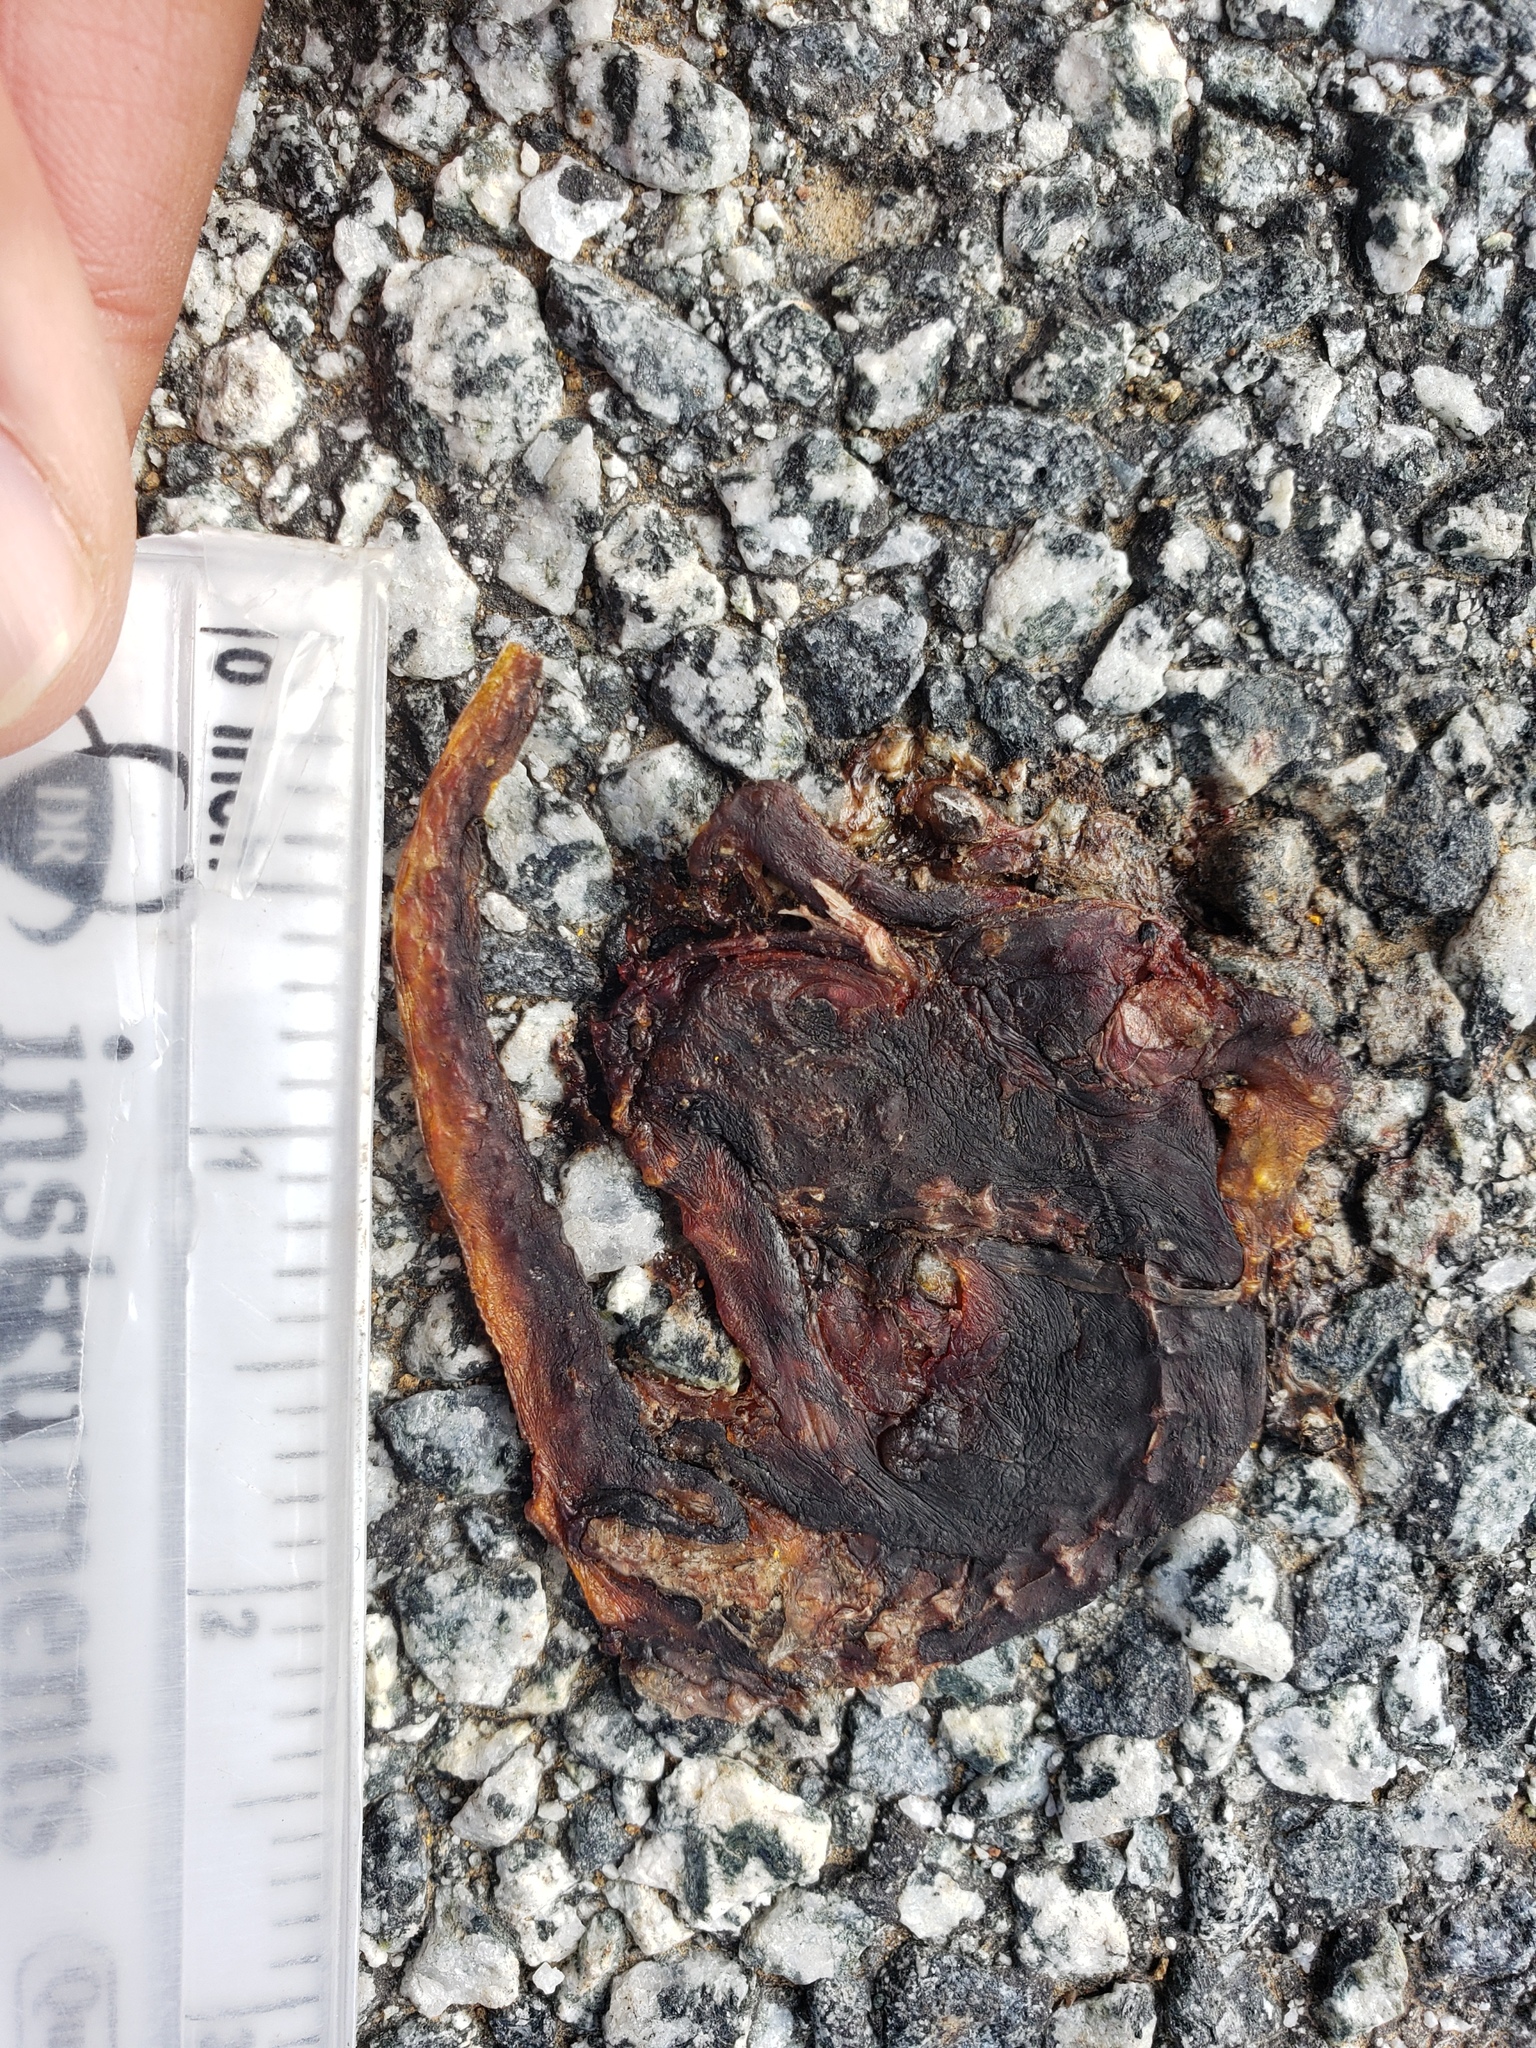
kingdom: Animalia
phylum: Chordata
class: Amphibia
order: Caudata
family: Salamandridae
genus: Taricha
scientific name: Taricha
